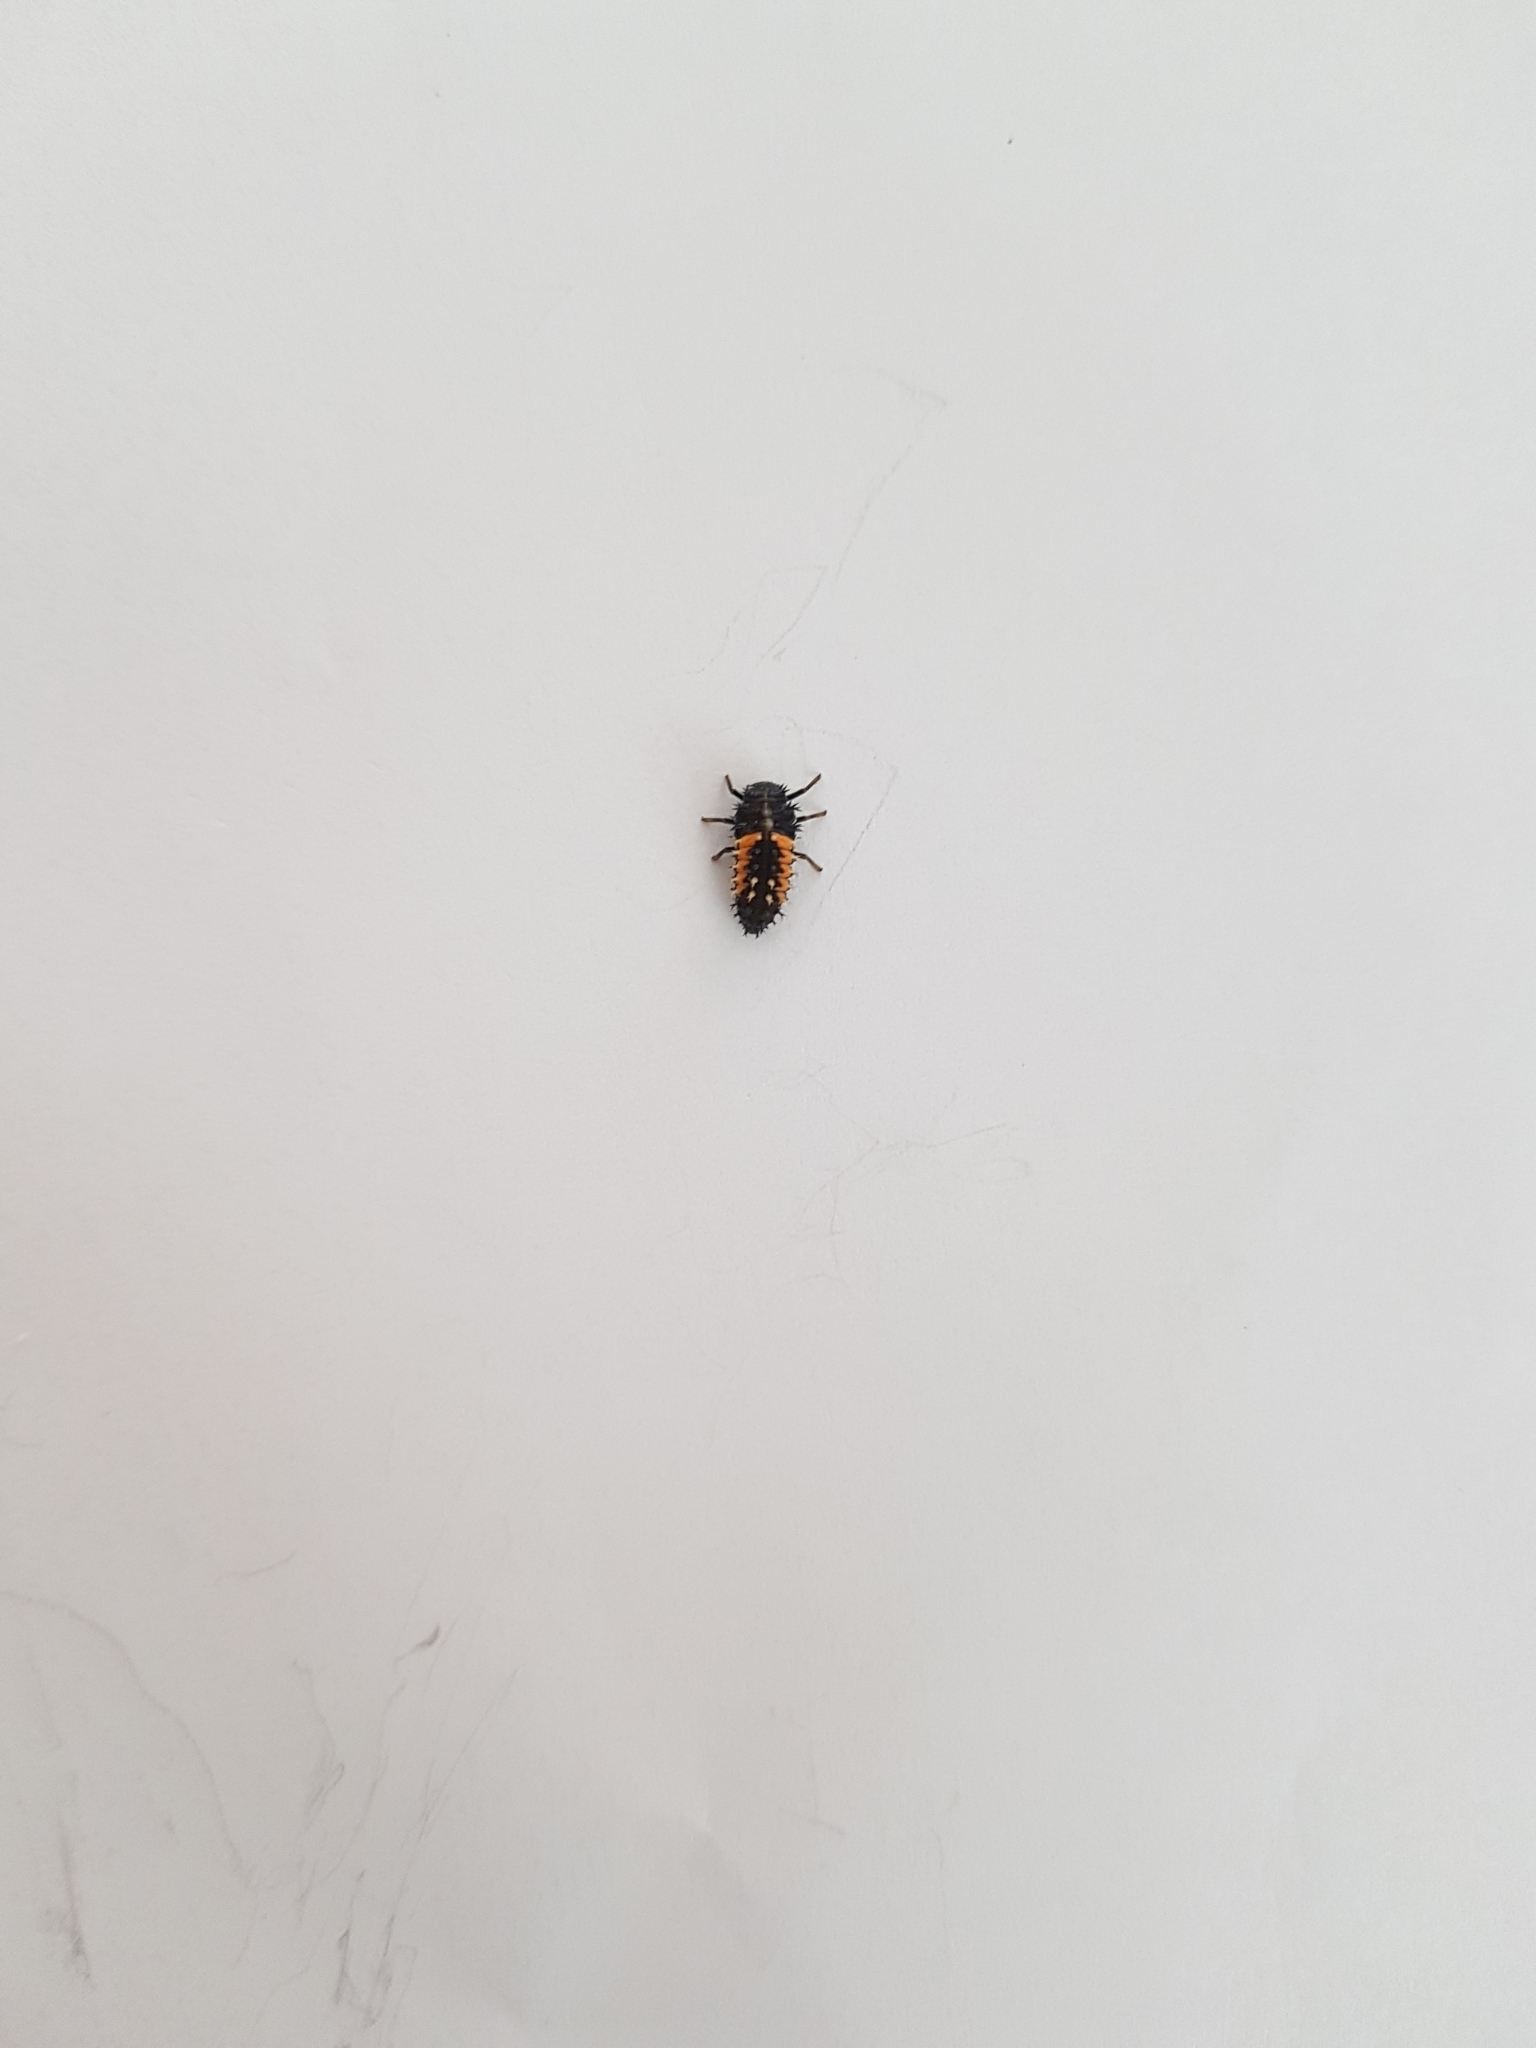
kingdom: Animalia
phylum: Arthropoda
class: Insecta
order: Coleoptera
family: Coccinellidae
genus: Harmonia
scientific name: Harmonia axyridis
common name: Harlequin ladybird
